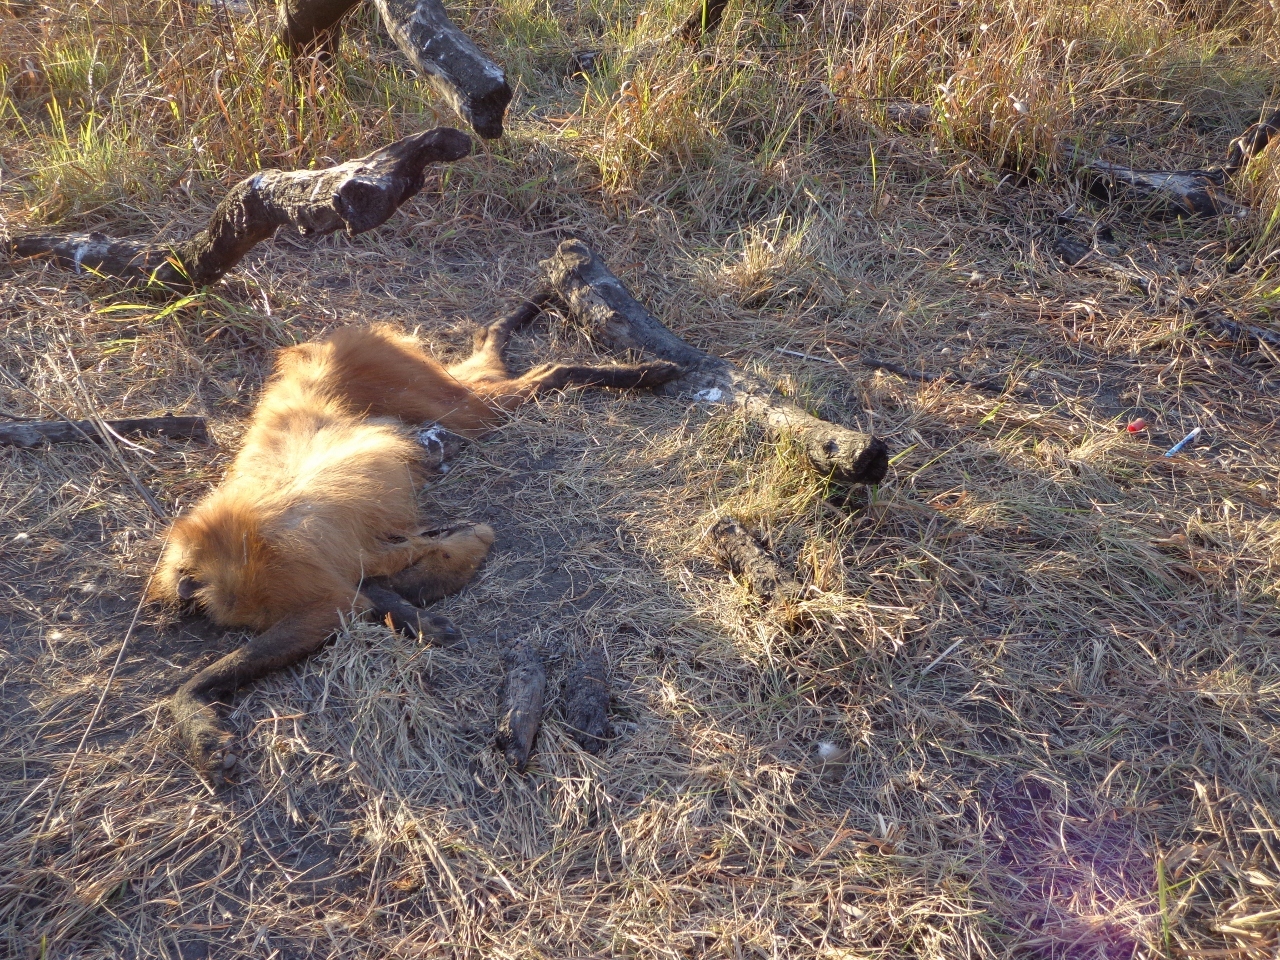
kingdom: Animalia
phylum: Chordata
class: Mammalia
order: Carnivora
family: Canidae
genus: Chrysocyon
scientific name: Chrysocyon brachyurus
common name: Maned wolf
